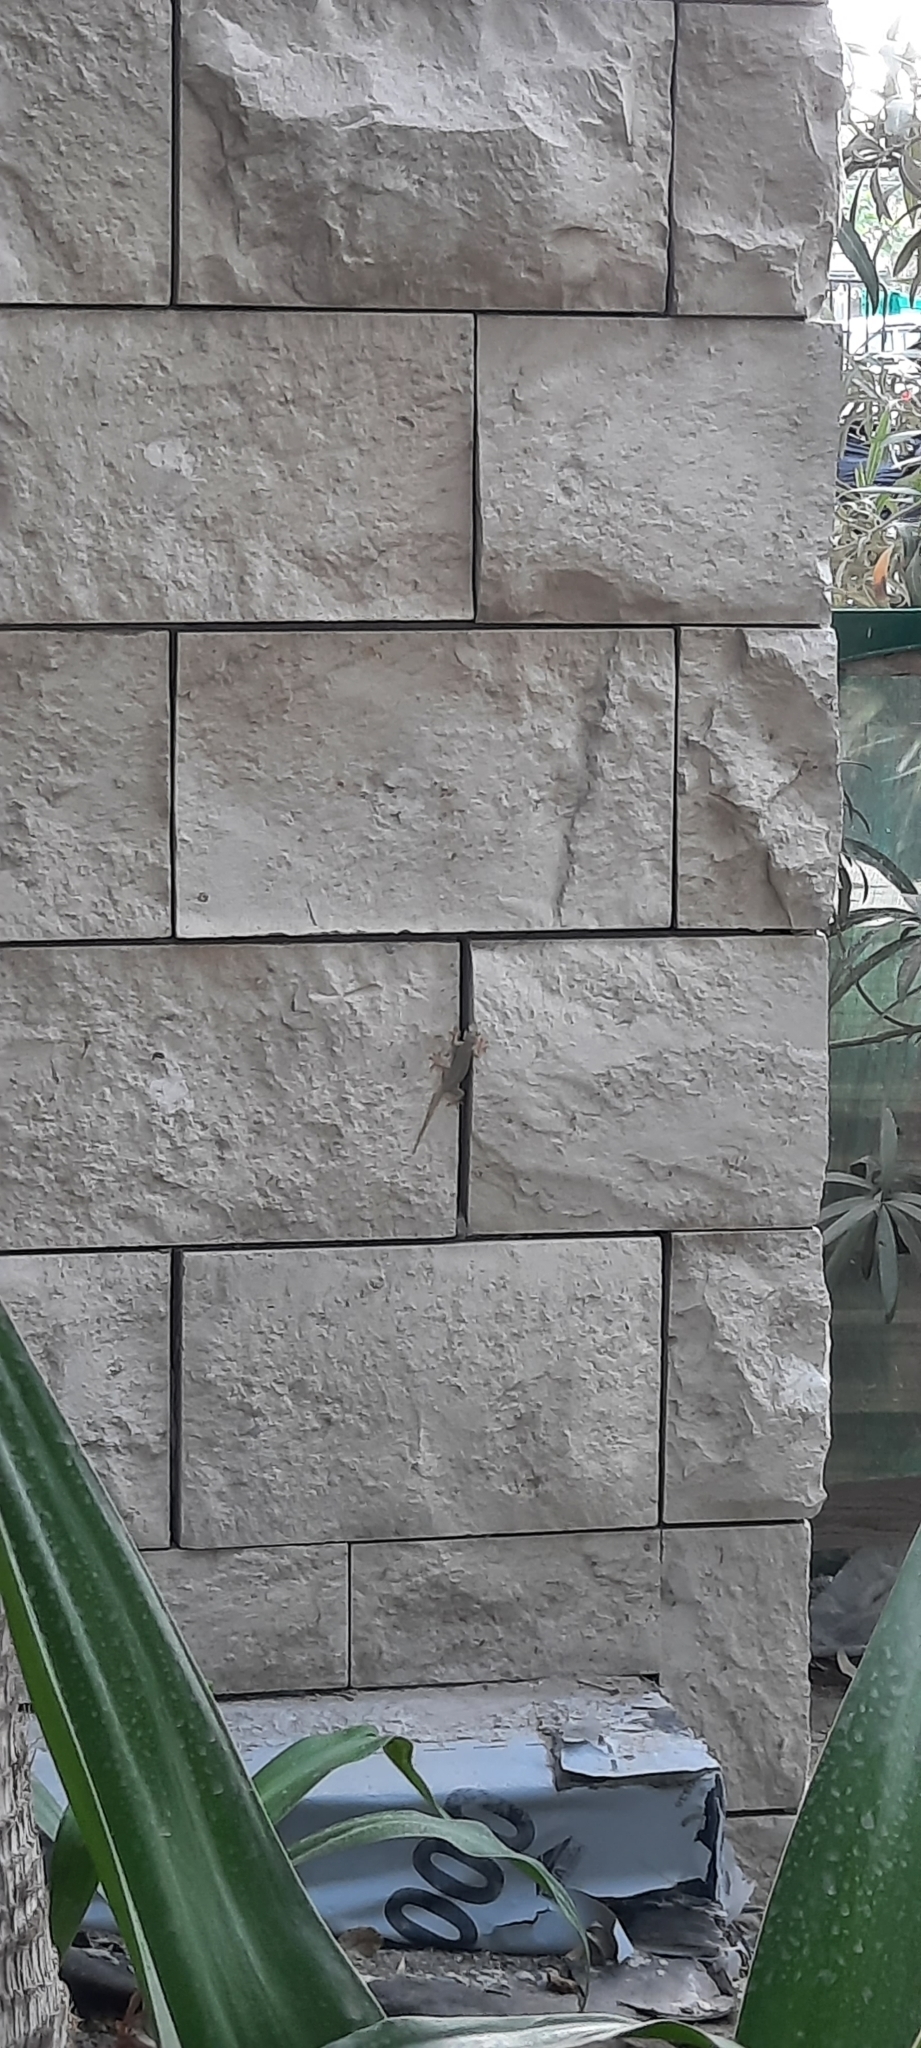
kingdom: Animalia
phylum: Chordata
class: Squamata
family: Gekkonidae
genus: Hemidactylus
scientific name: Hemidactylus flaviviridis
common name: Northern house gecko
